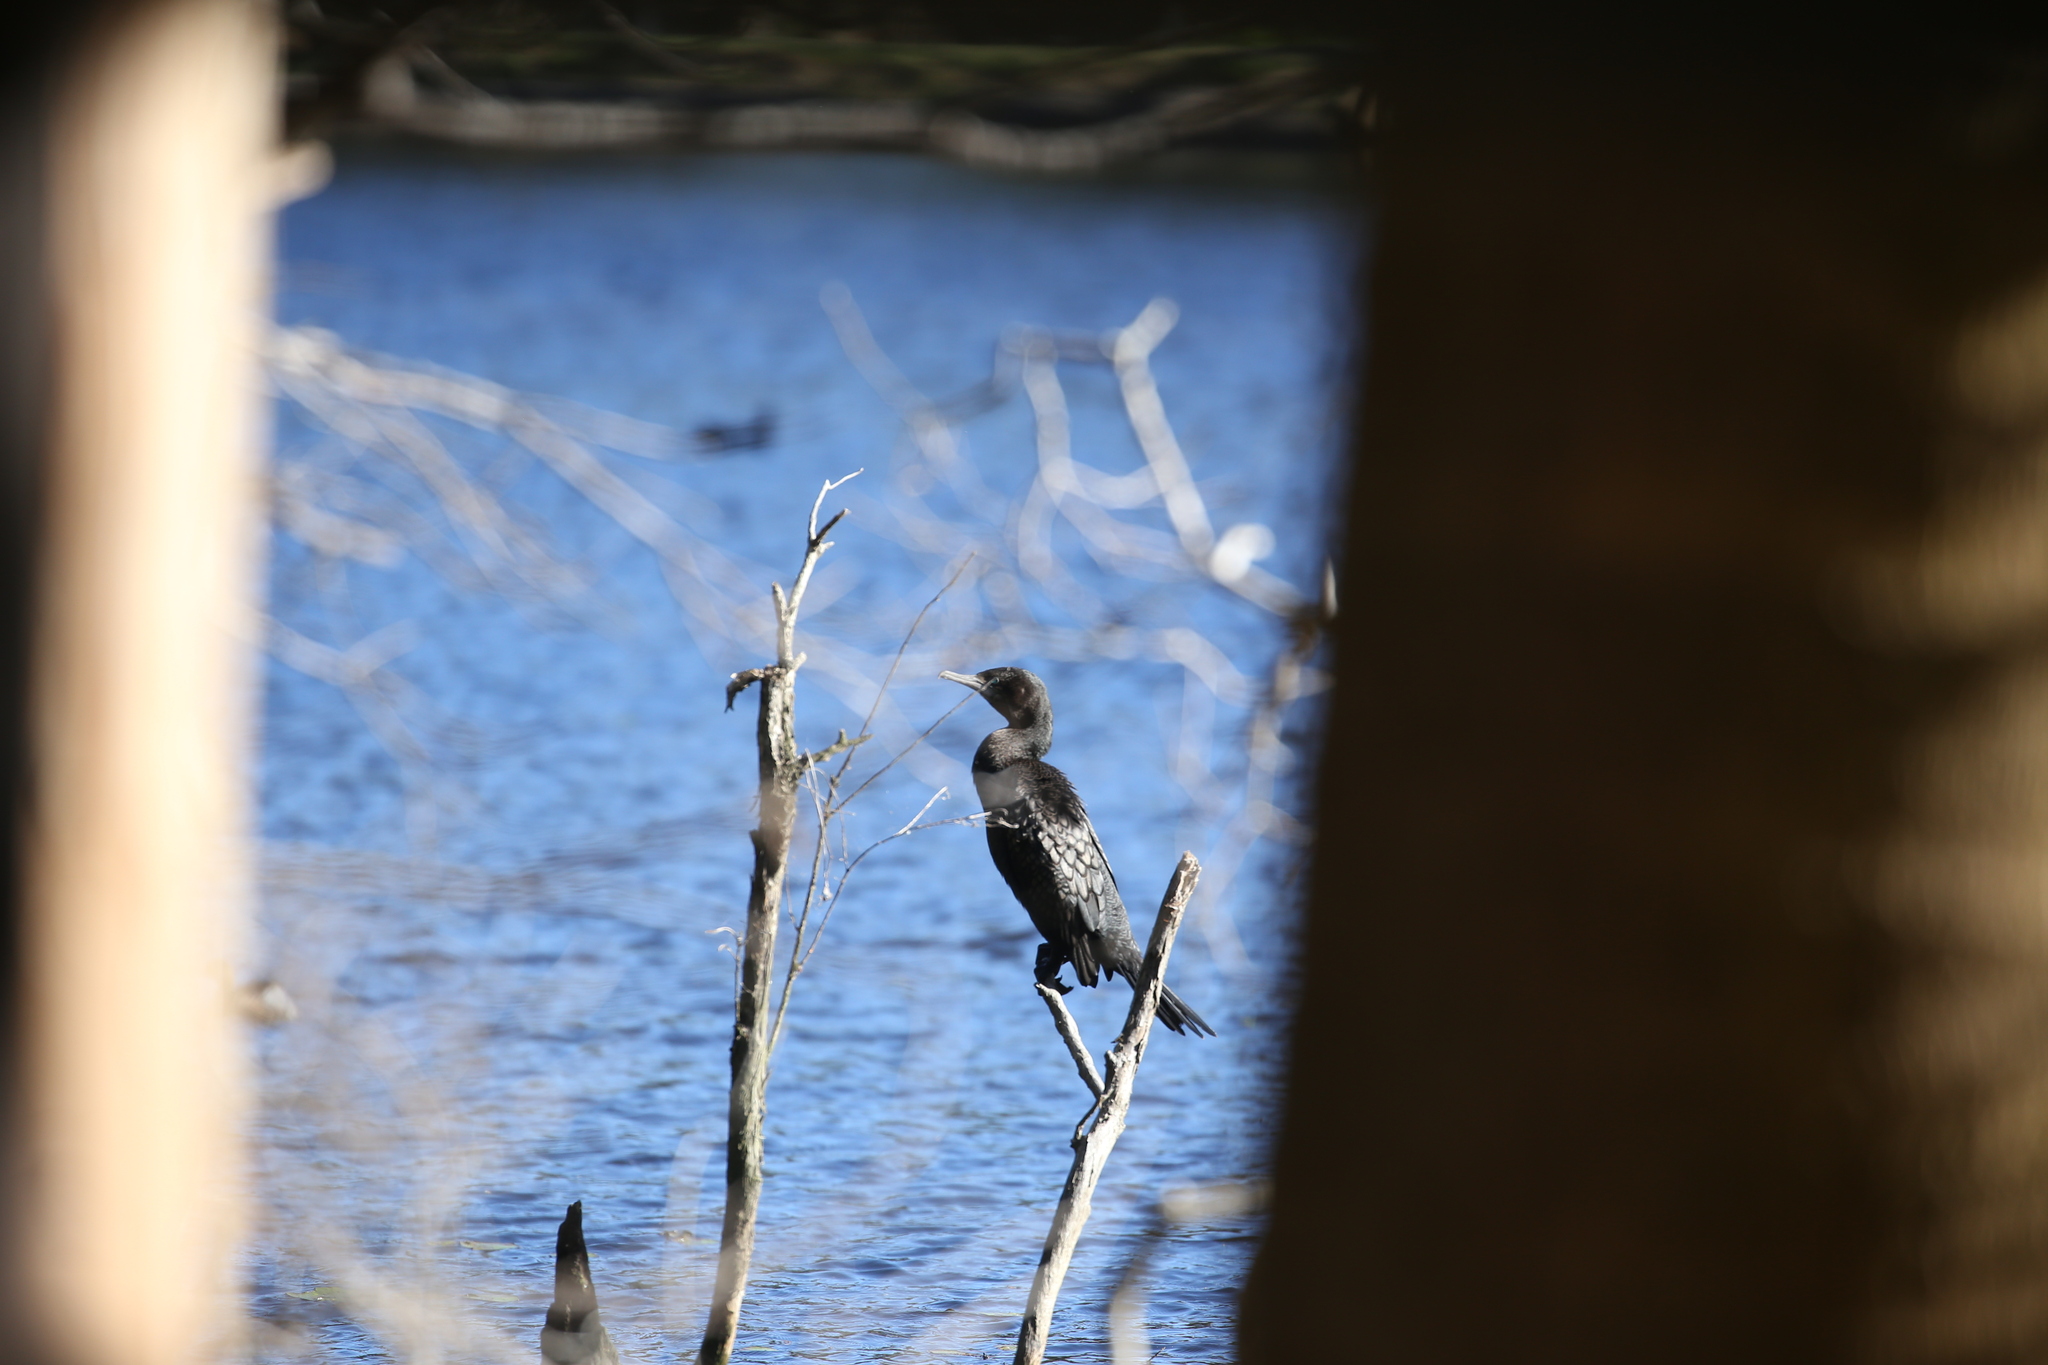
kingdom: Animalia
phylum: Chordata
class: Aves
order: Suliformes
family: Phalacrocoracidae
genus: Phalacrocorax
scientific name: Phalacrocorax sulcirostris
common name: Little black cormorant
